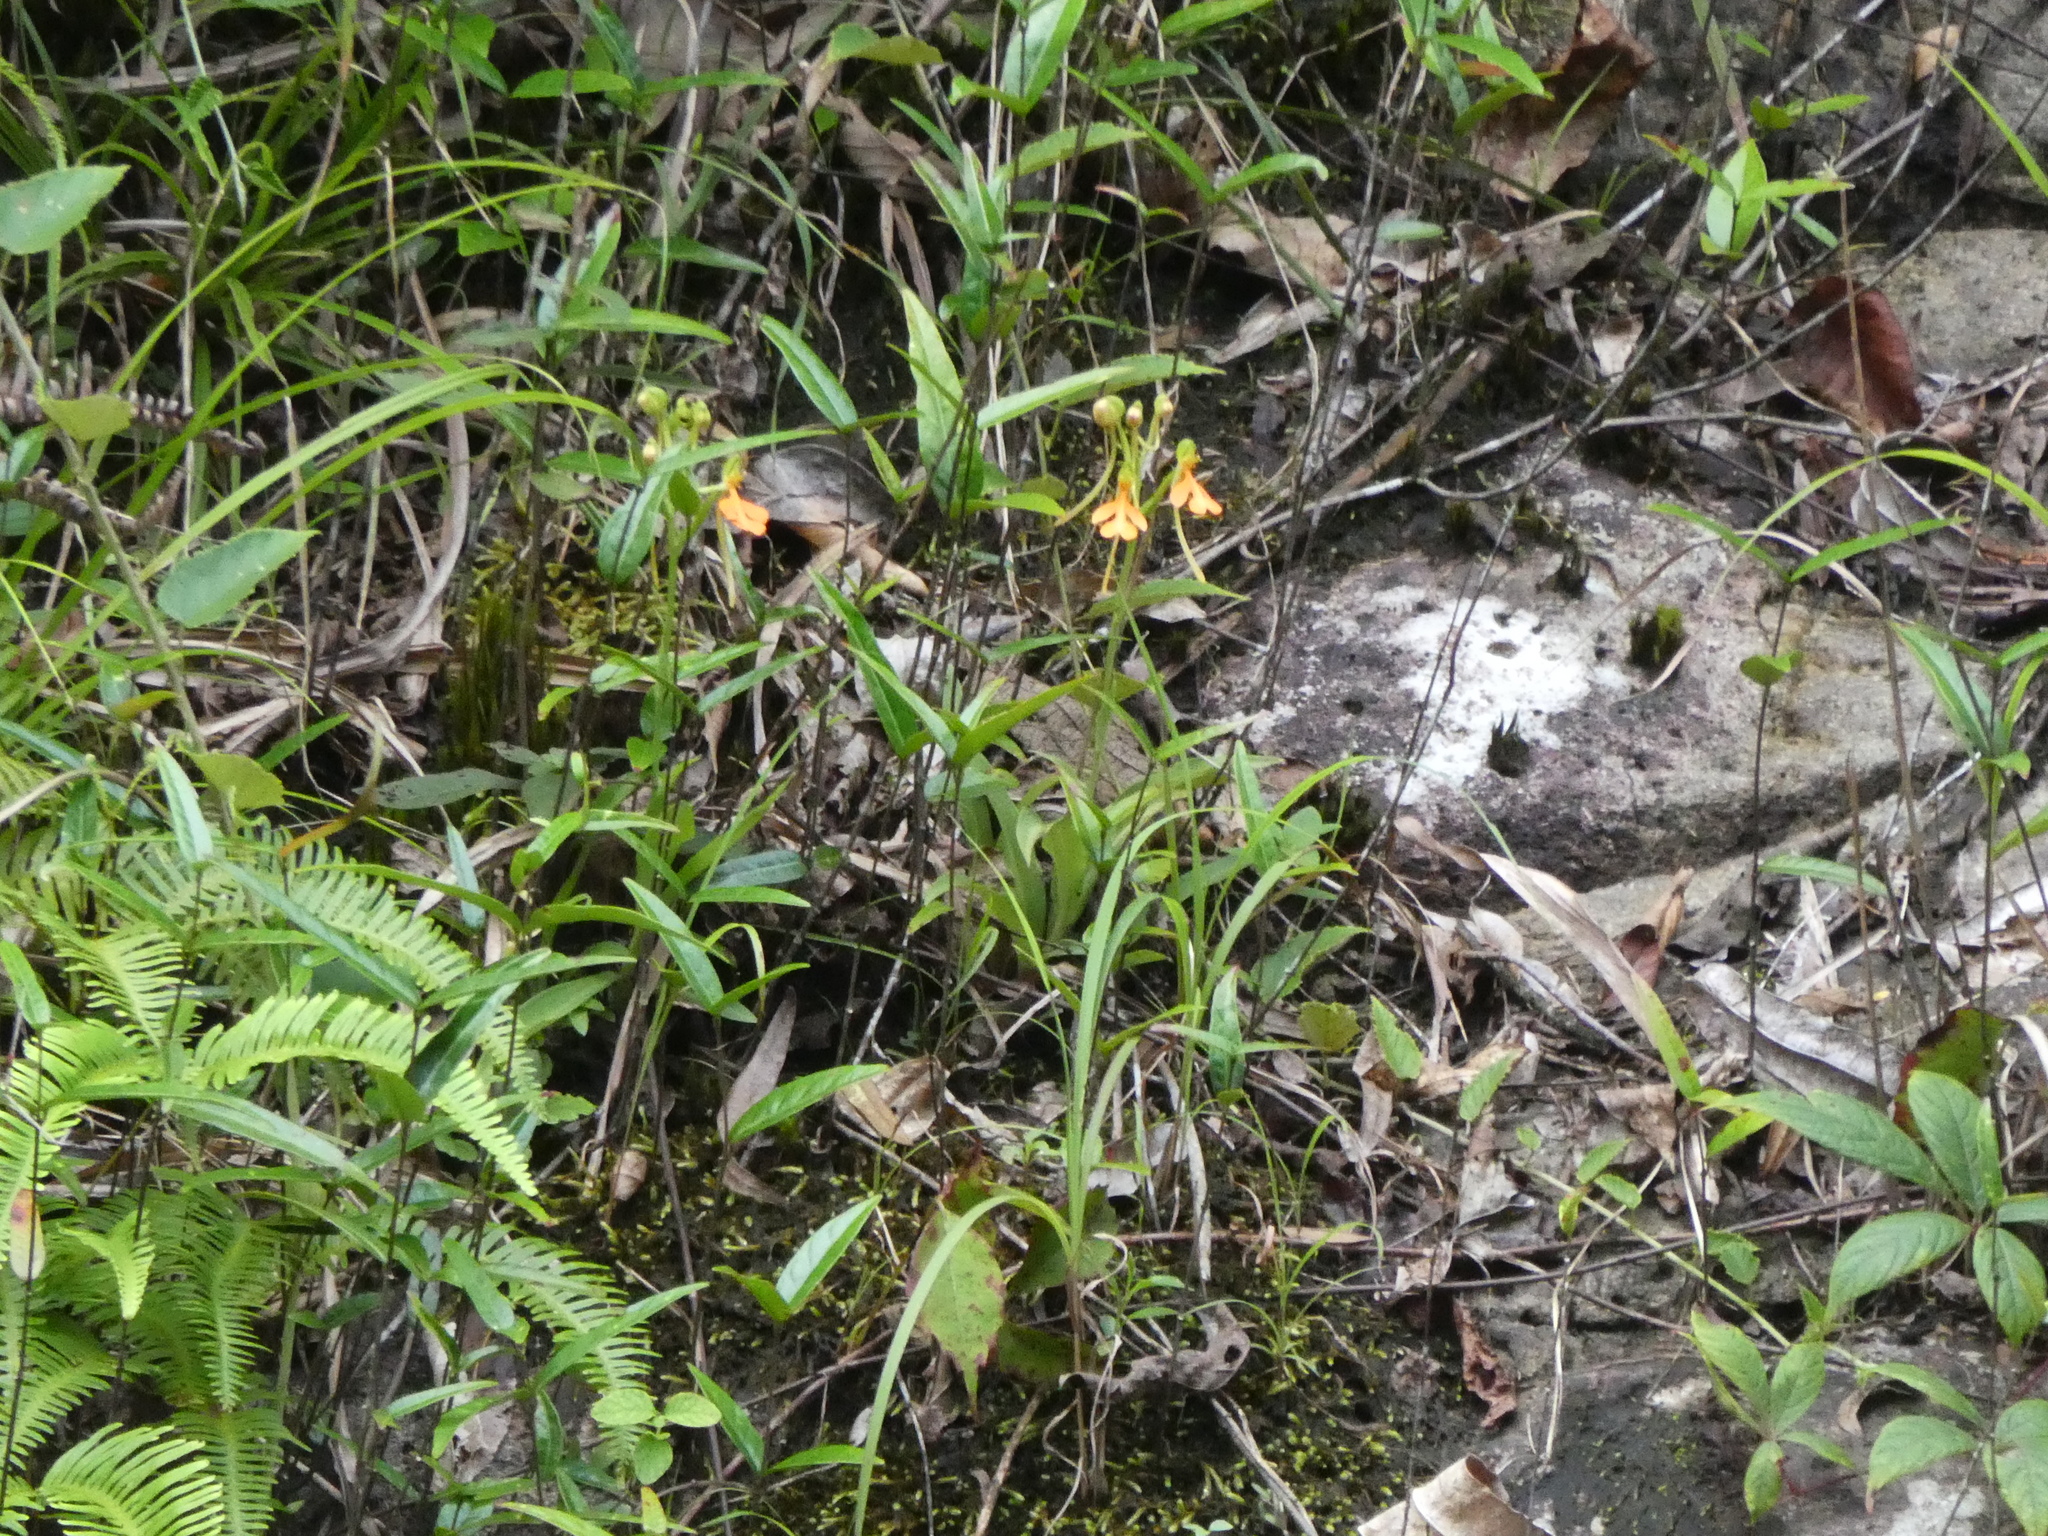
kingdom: Plantae
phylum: Tracheophyta
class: Liliopsida
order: Asparagales
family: Orchidaceae
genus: Habenaria
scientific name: Habenaria rhodocheila
